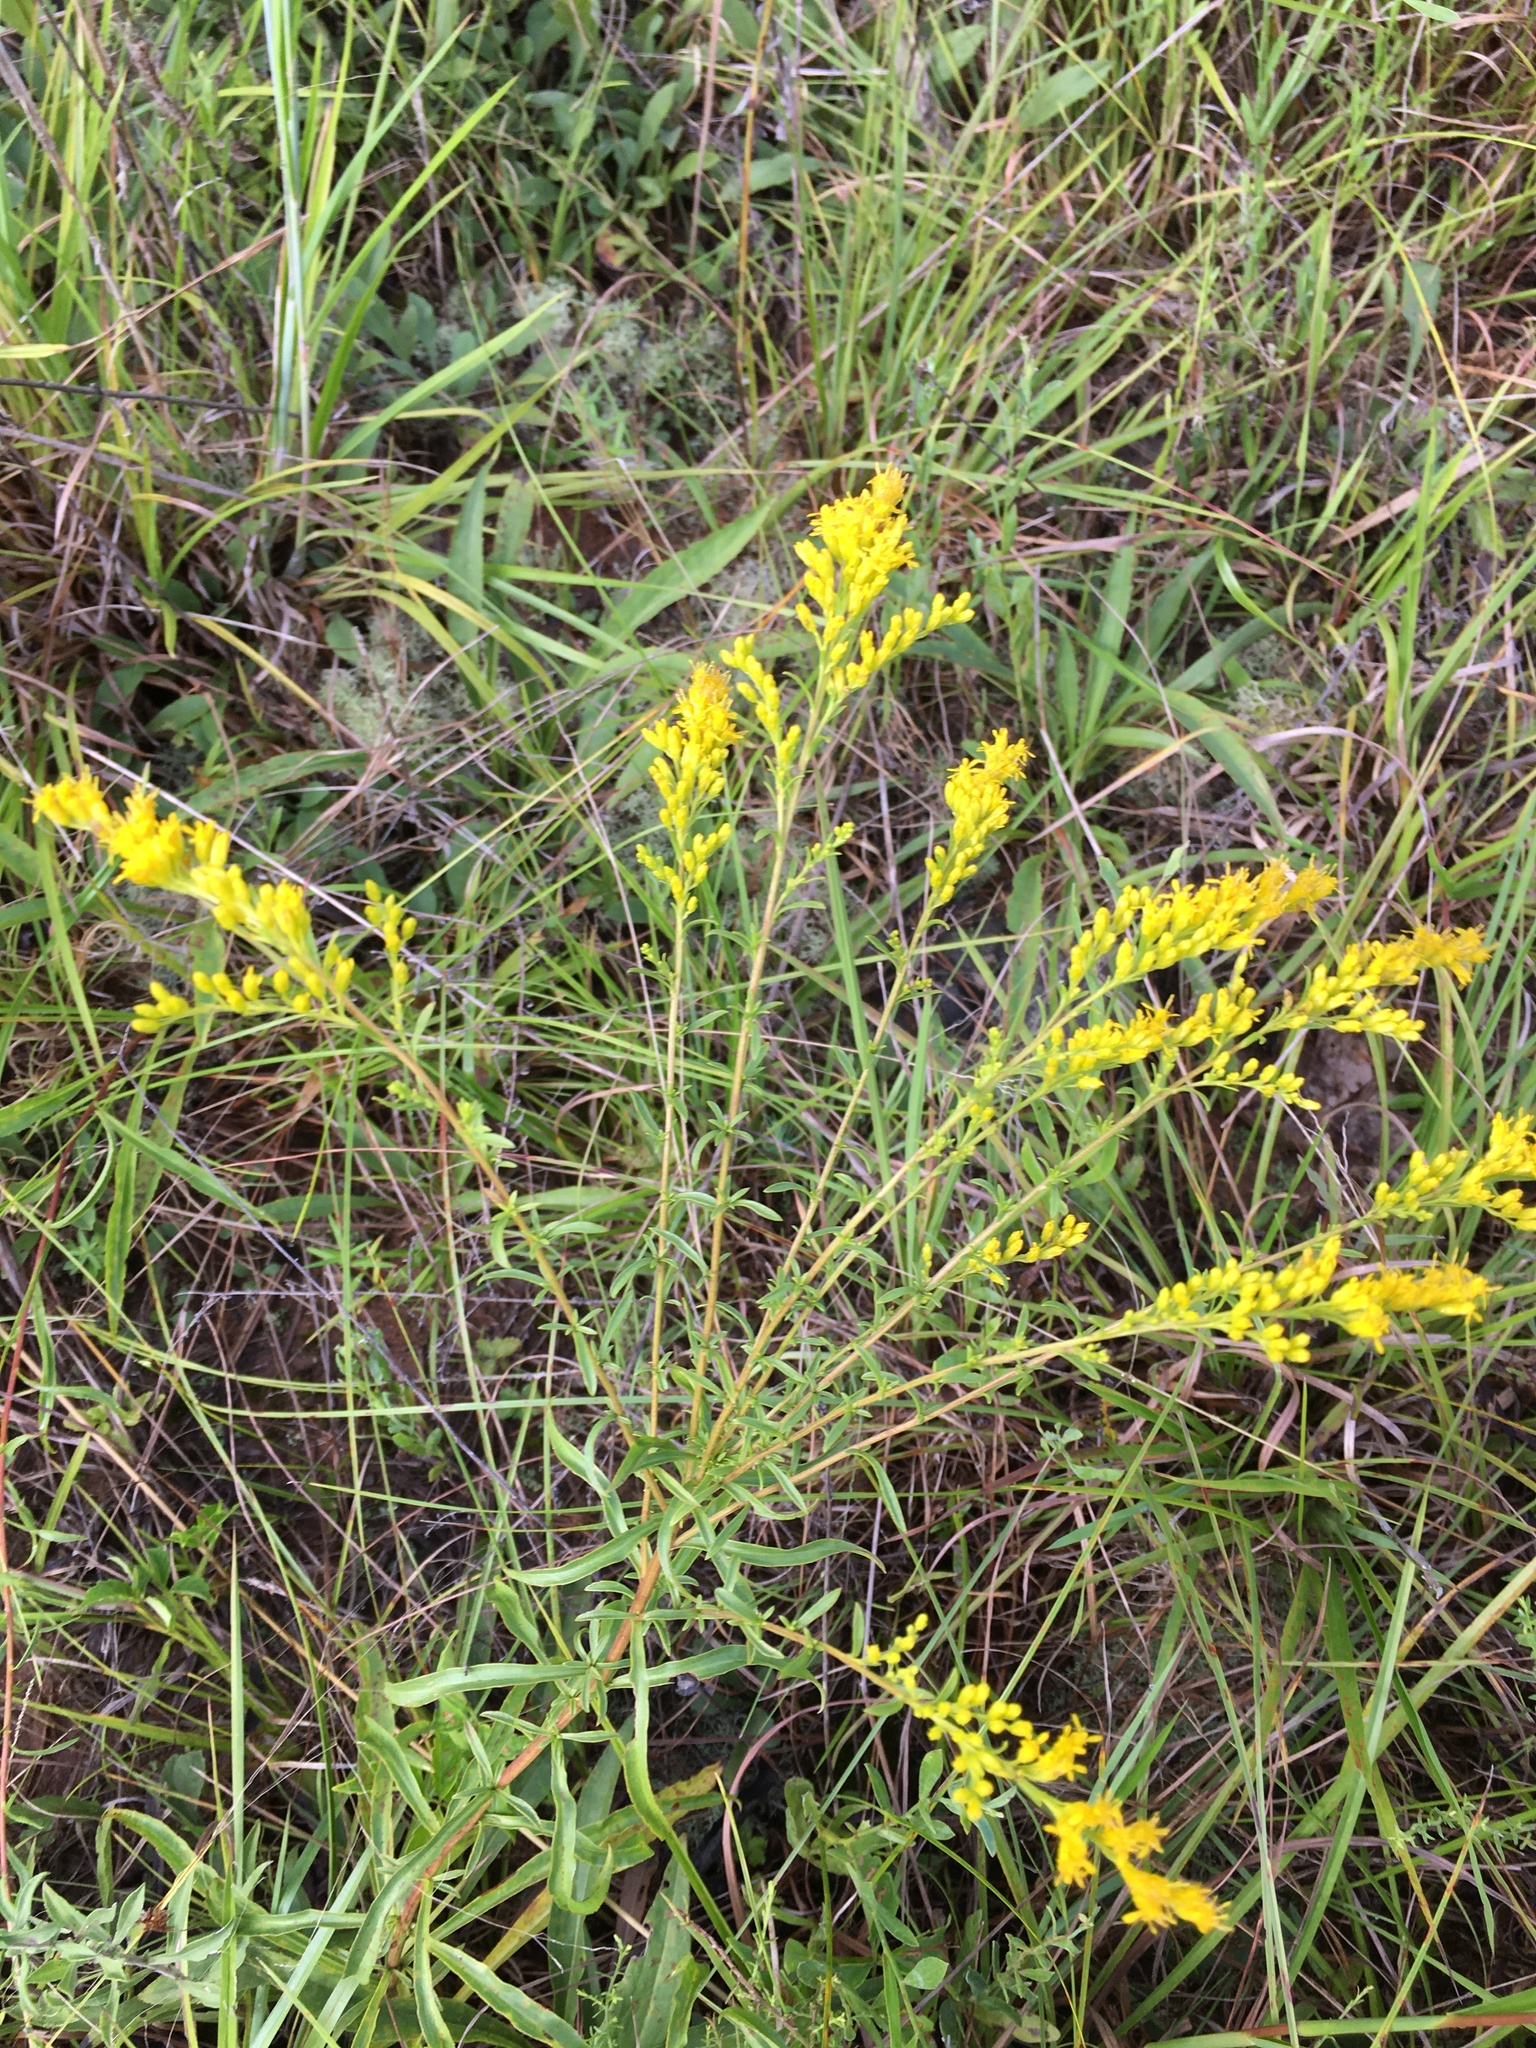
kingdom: Plantae
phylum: Tracheophyta
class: Magnoliopsida
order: Asterales
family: Asteraceae
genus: Solidago
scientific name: Solidago pinetorum
